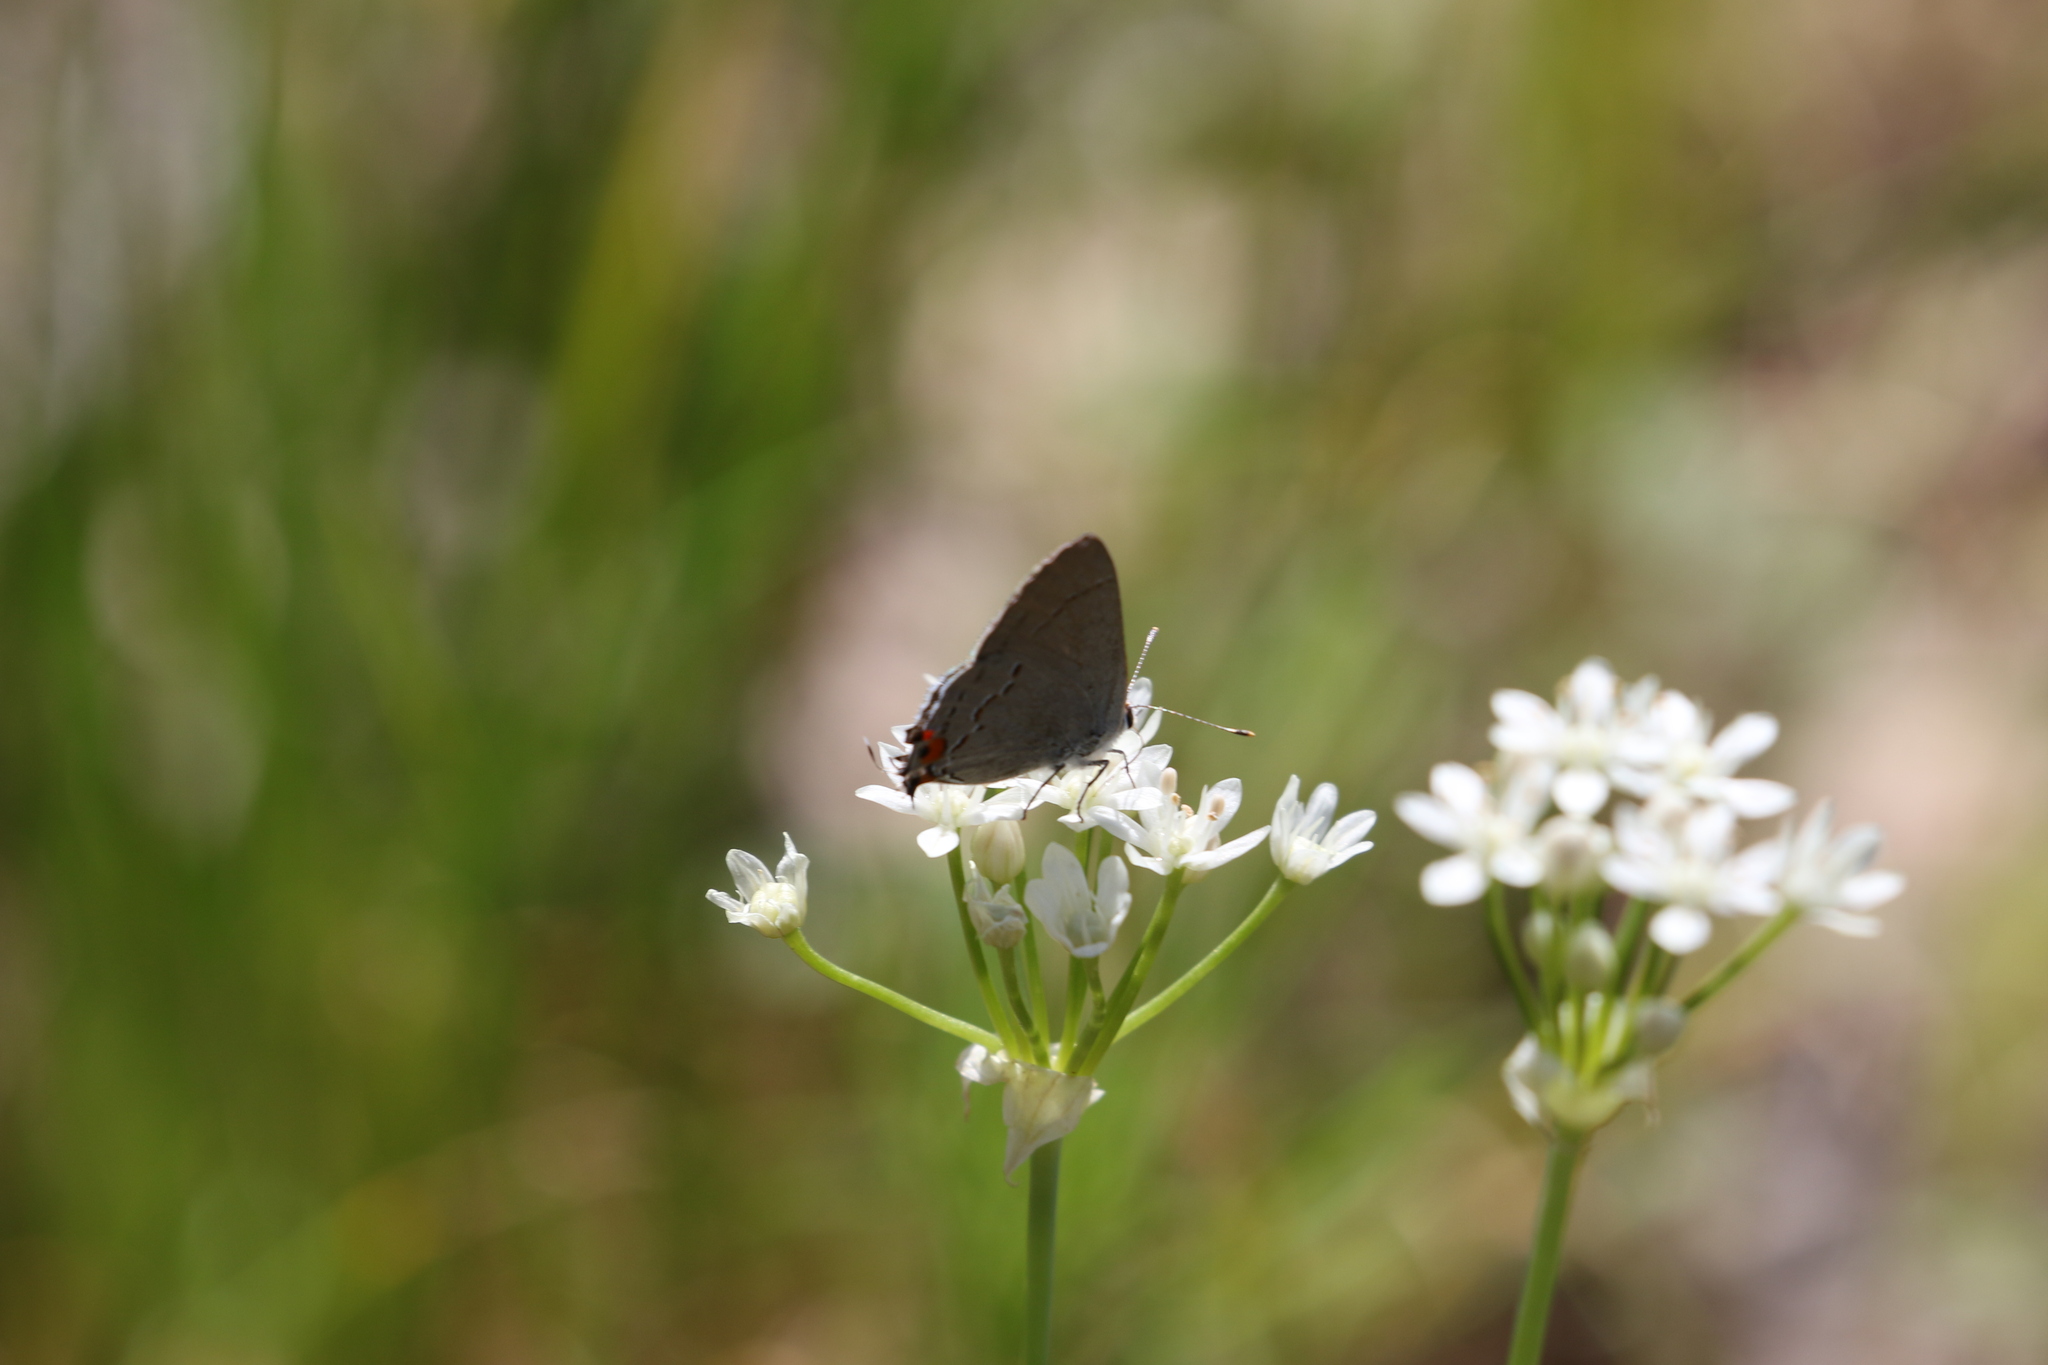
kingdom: Animalia
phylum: Arthropoda
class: Insecta
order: Lepidoptera
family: Lycaenidae
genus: Strymon
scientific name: Strymon melinus
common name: Gray hairstreak
